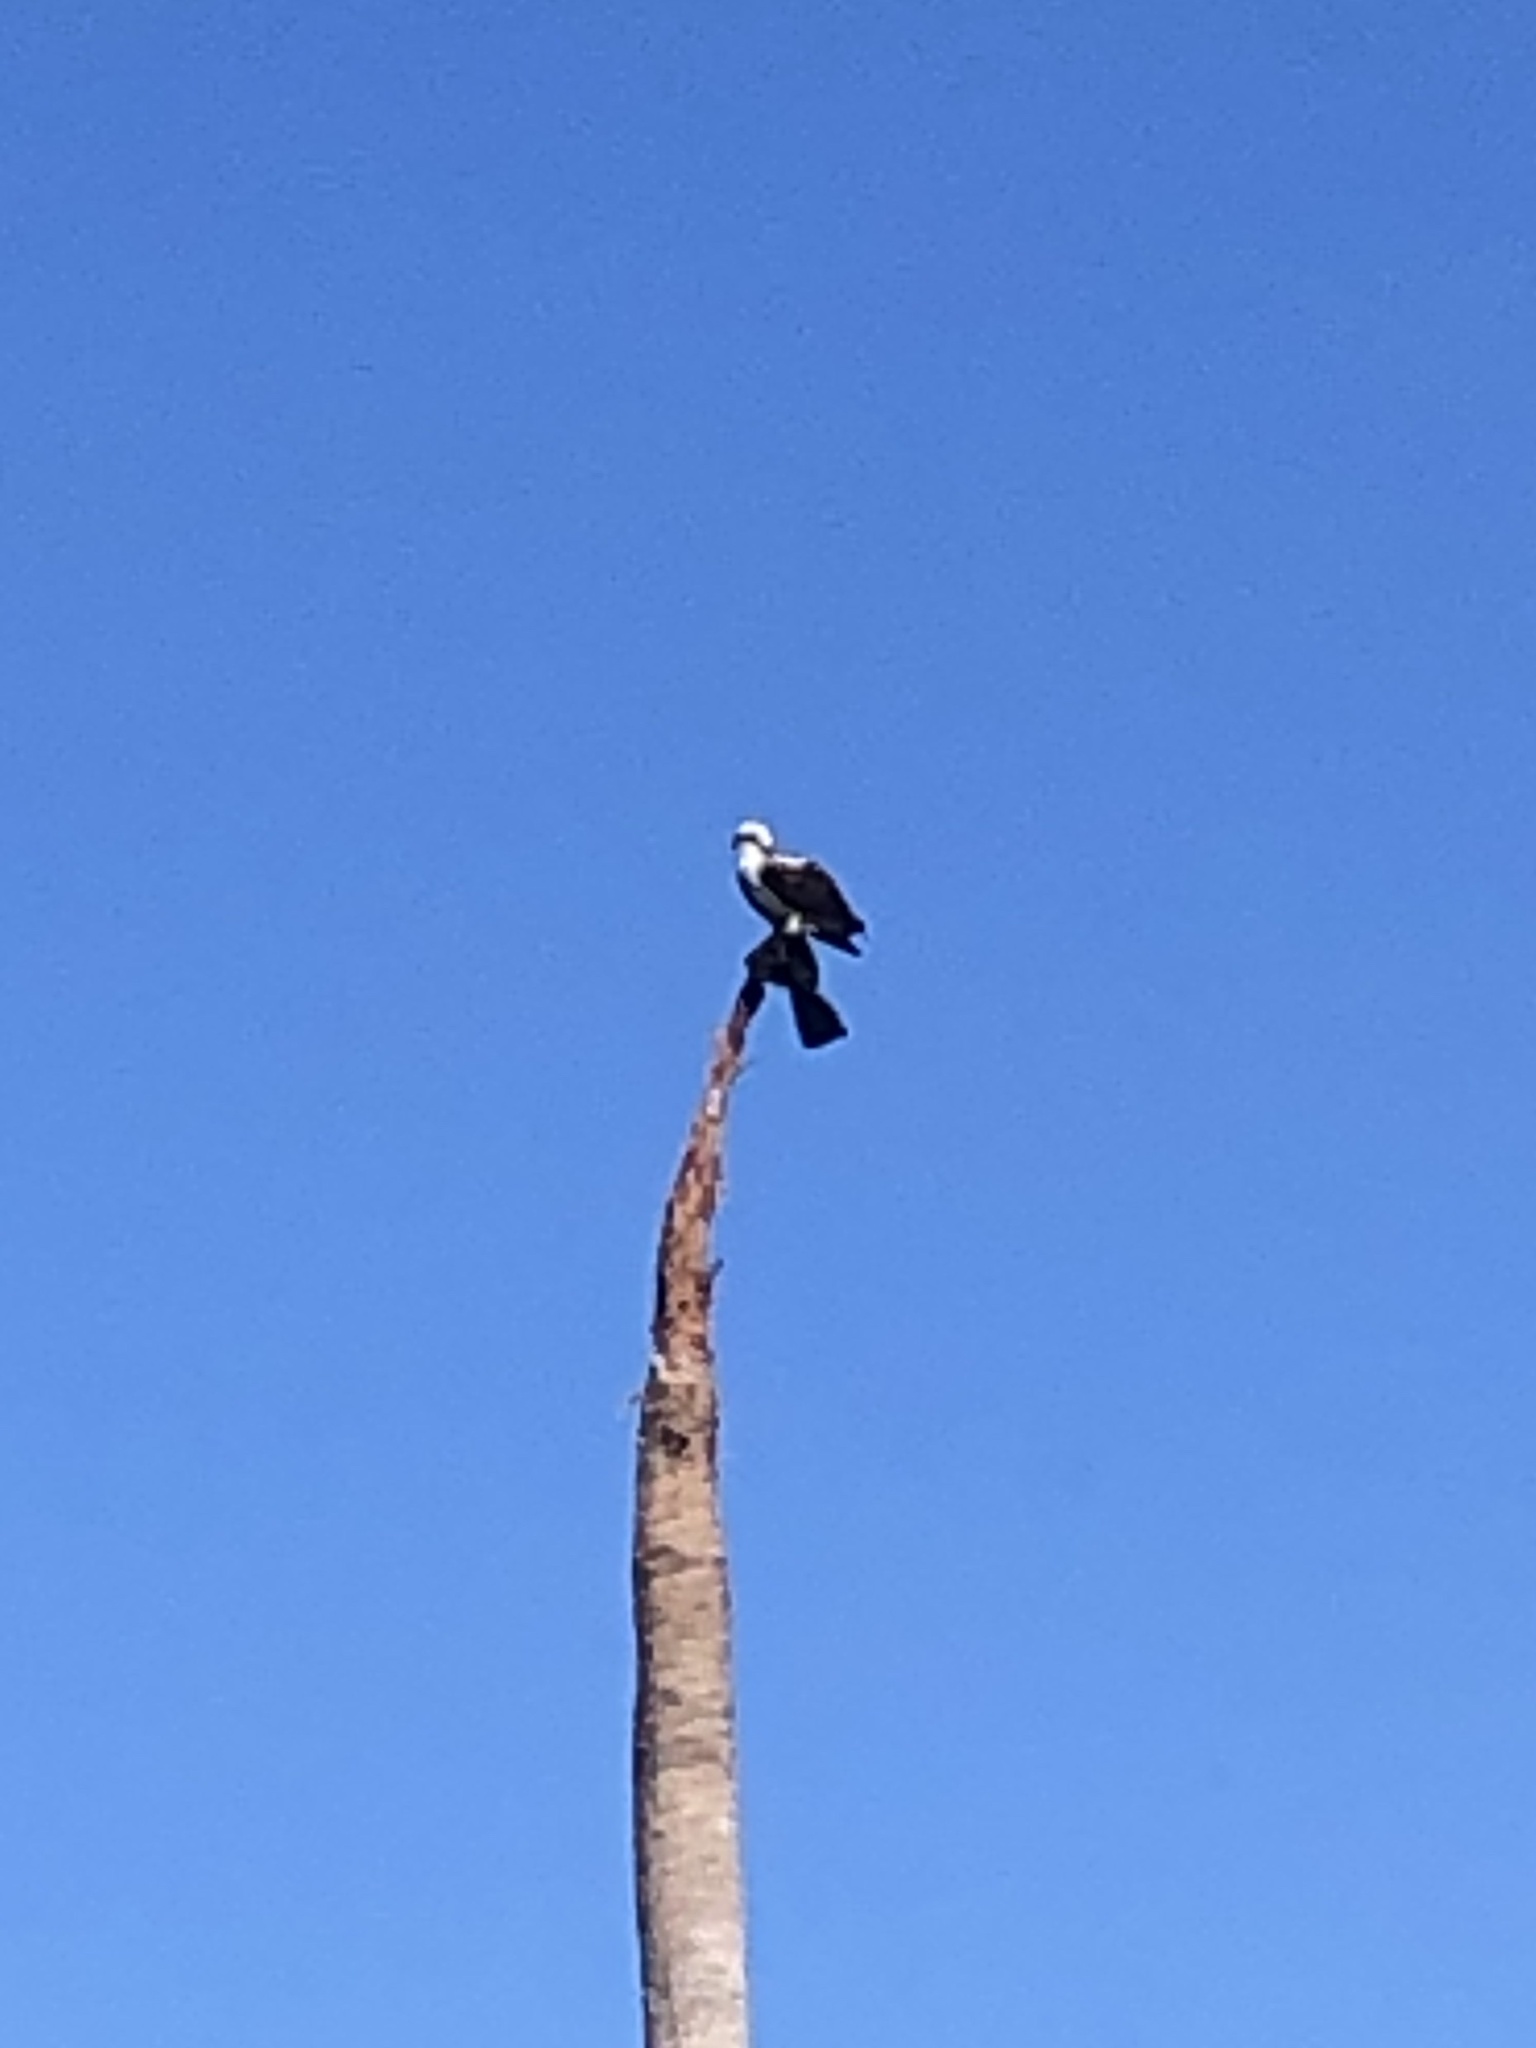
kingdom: Animalia
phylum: Chordata
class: Aves
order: Accipitriformes
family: Pandionidae
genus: Pandion
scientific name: Pandion haliaetus
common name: Osprey
